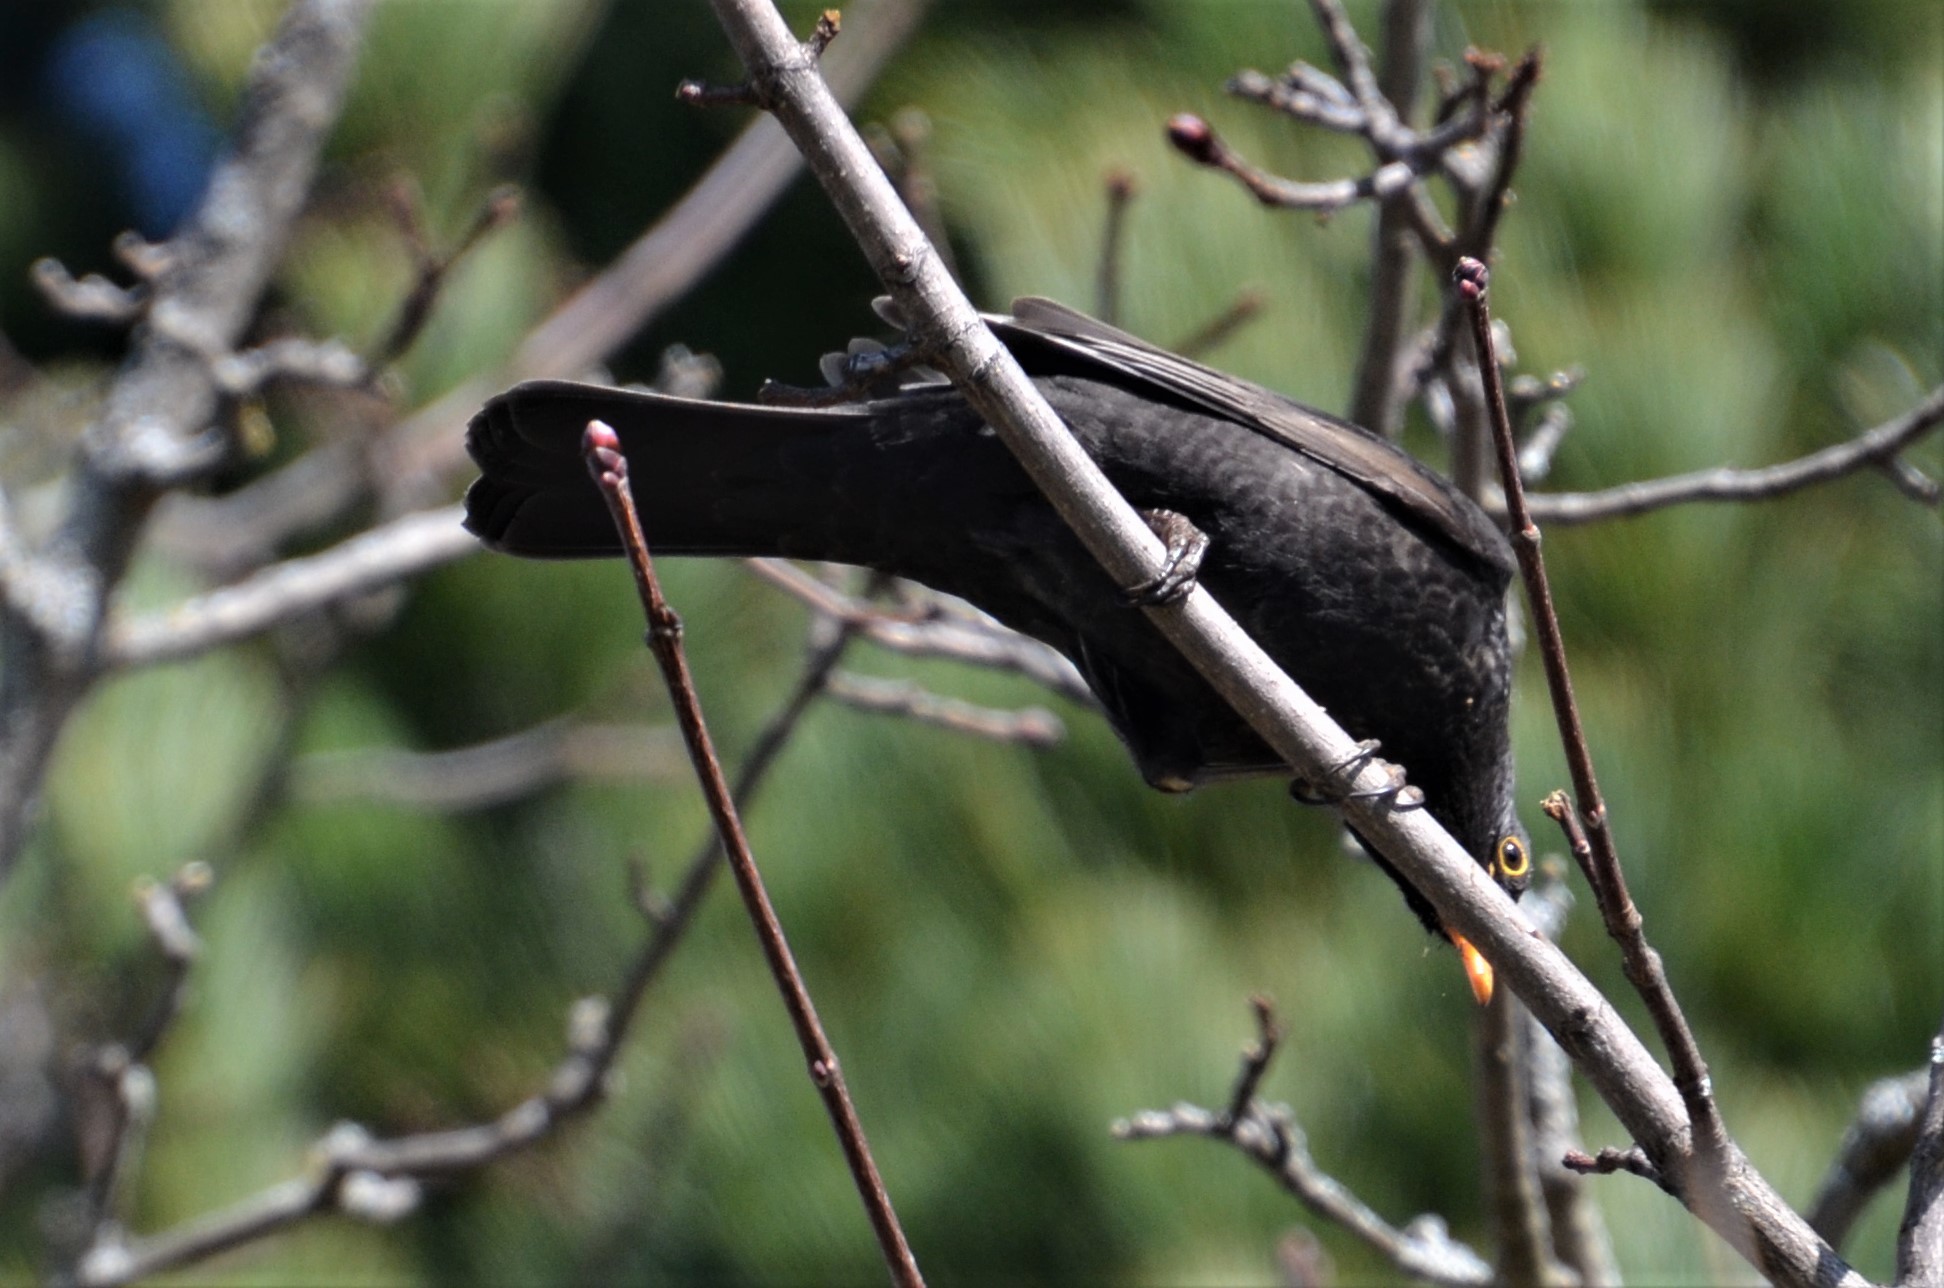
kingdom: Animalia
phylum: Chordata
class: Aves
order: Passeriformes
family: Turdidae
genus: Turdus
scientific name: Turdus merula
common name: Common blackbird
